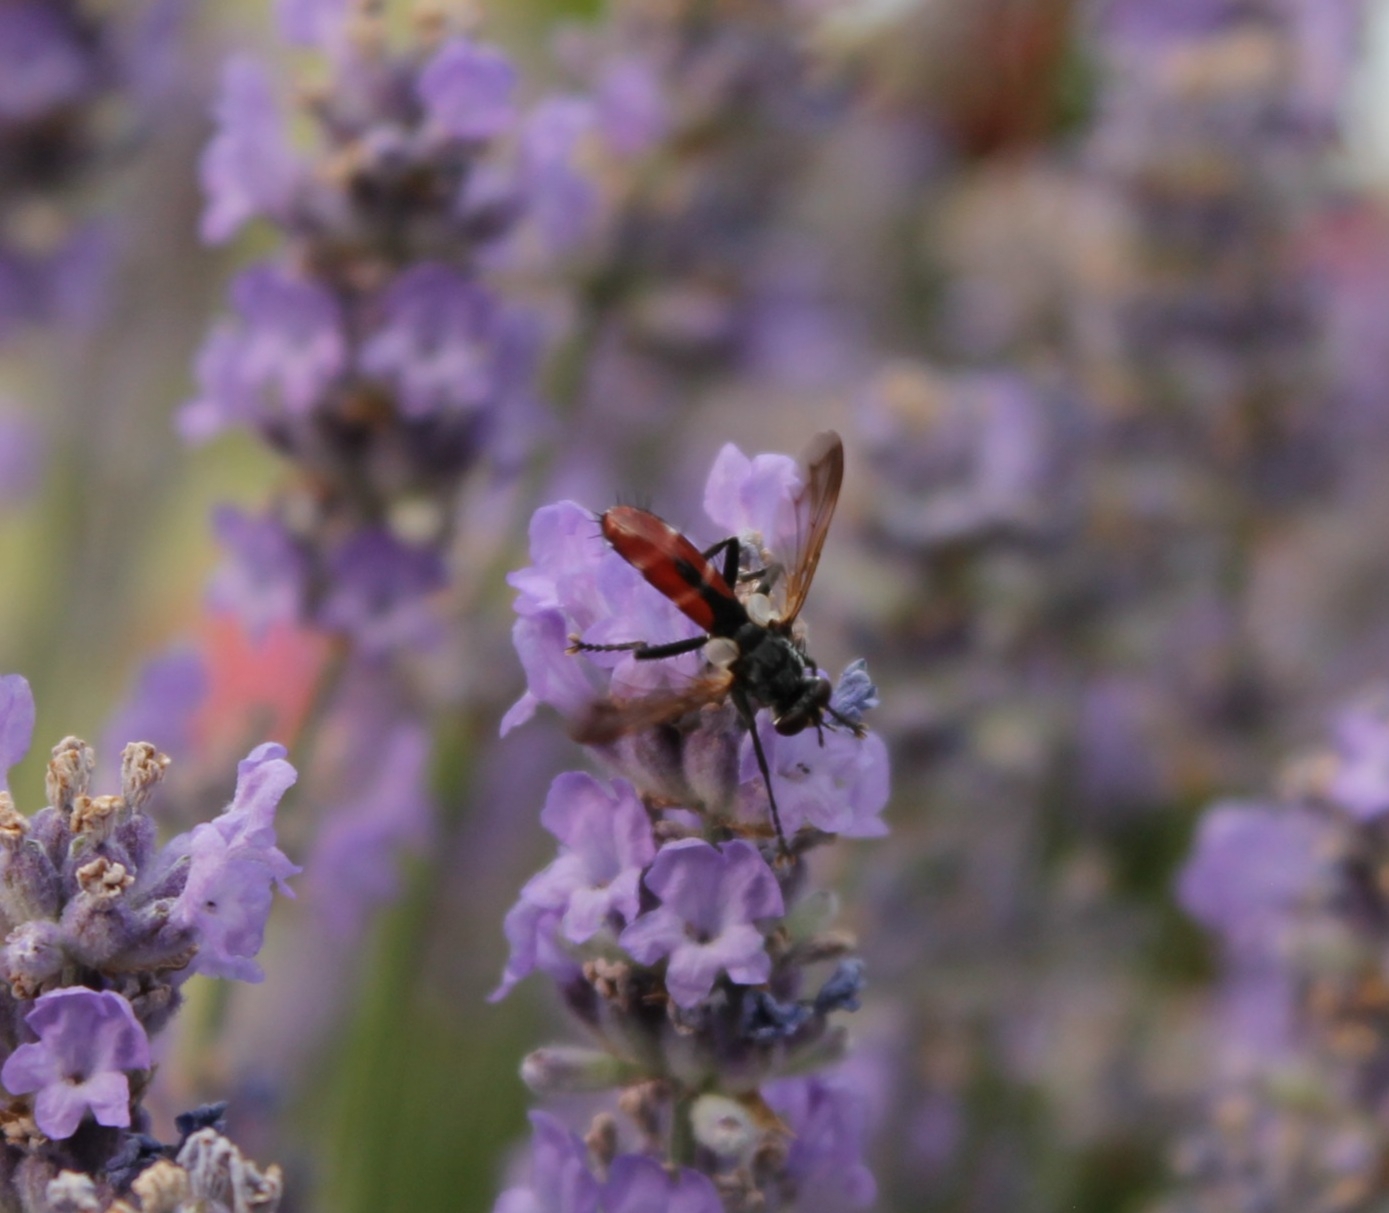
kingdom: Animalia
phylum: Arthropoda
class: Insecta
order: Diptera
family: Tachinidae
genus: Cylindromyia
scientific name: Cylindromyia bicolor
